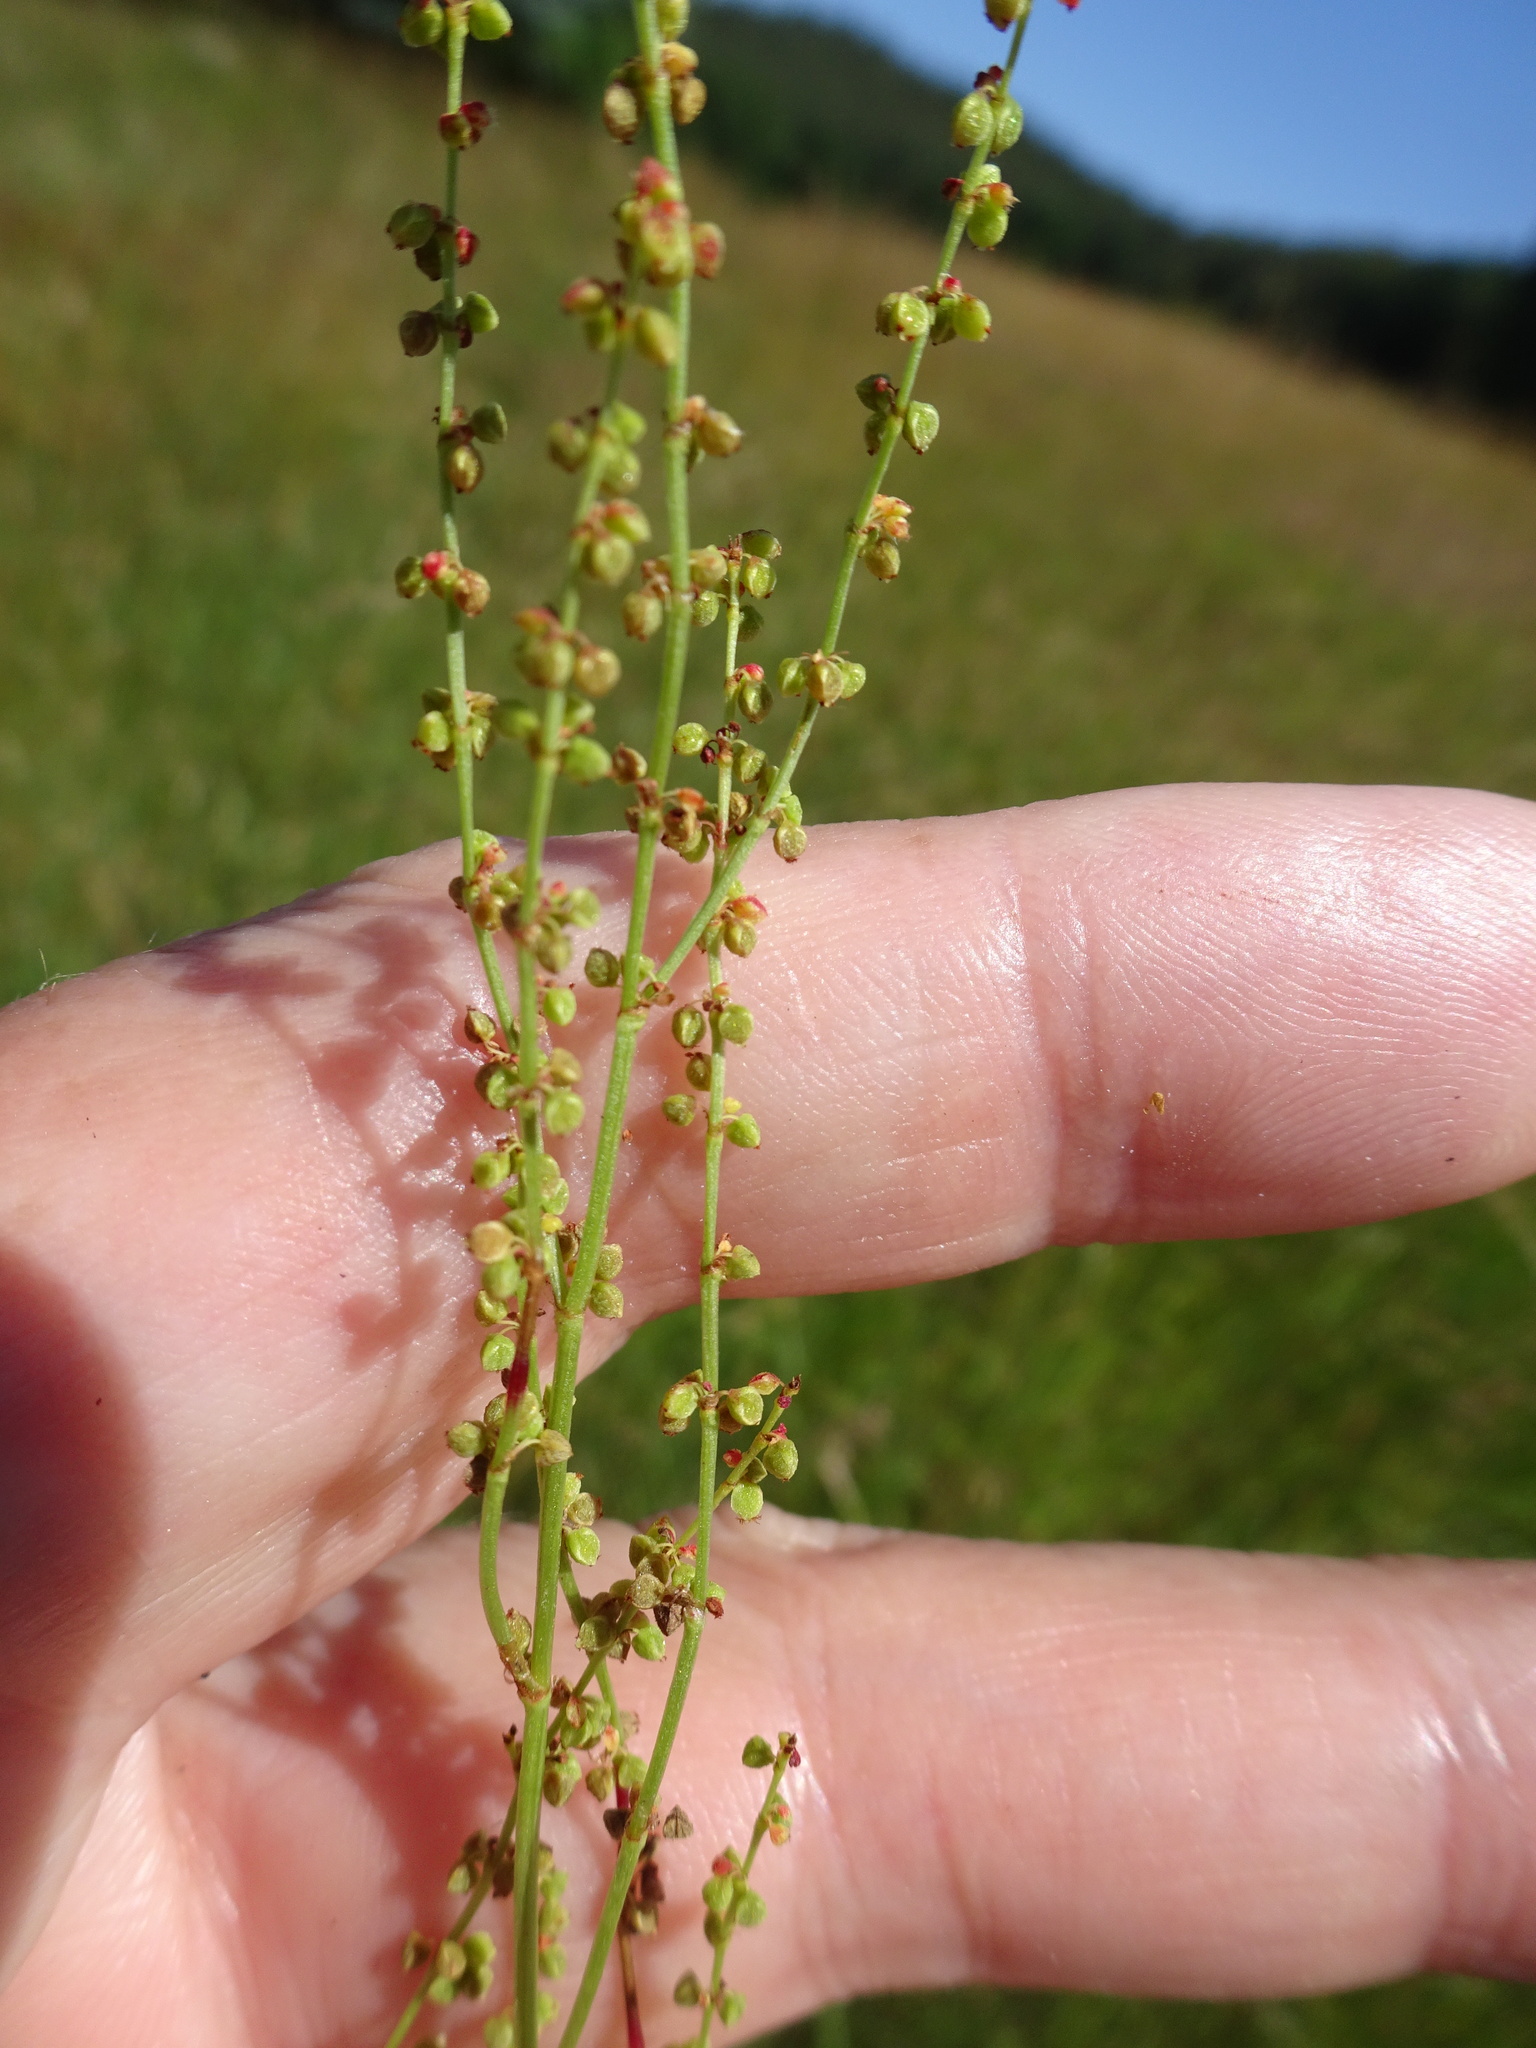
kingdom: Plantae
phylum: Tracheophyta
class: Magnoliopsida
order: Caryophyllales
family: Polygonaceae
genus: Rumex
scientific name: Rumex acetosella
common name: Common sheep sorrel
